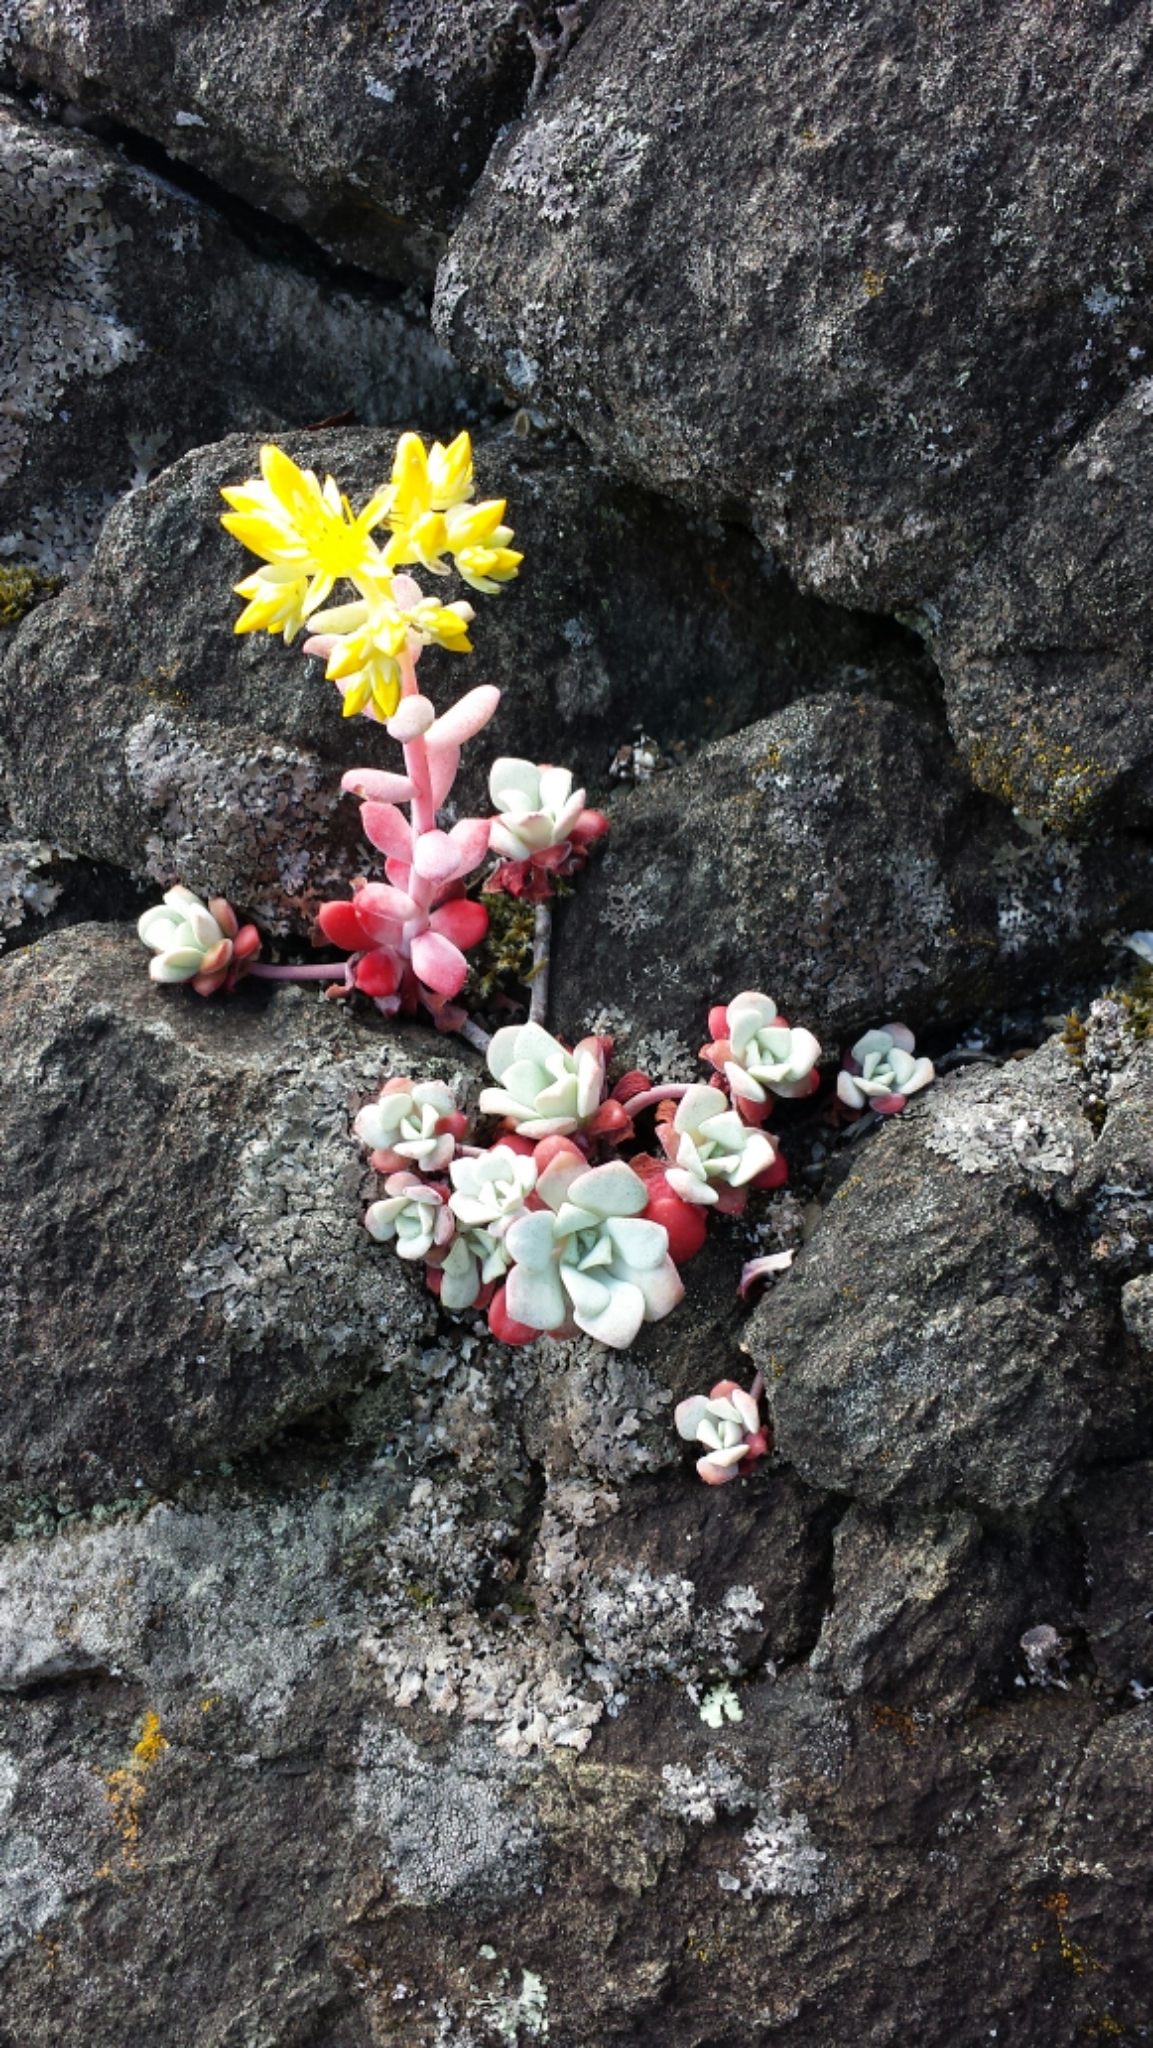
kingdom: Plantae
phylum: Tracheophyta
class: Magnoliopsida
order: Saxifragales
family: Crassulaceae
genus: Sedum
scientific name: Sedum spathulifolium
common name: Colorado stonecrop
